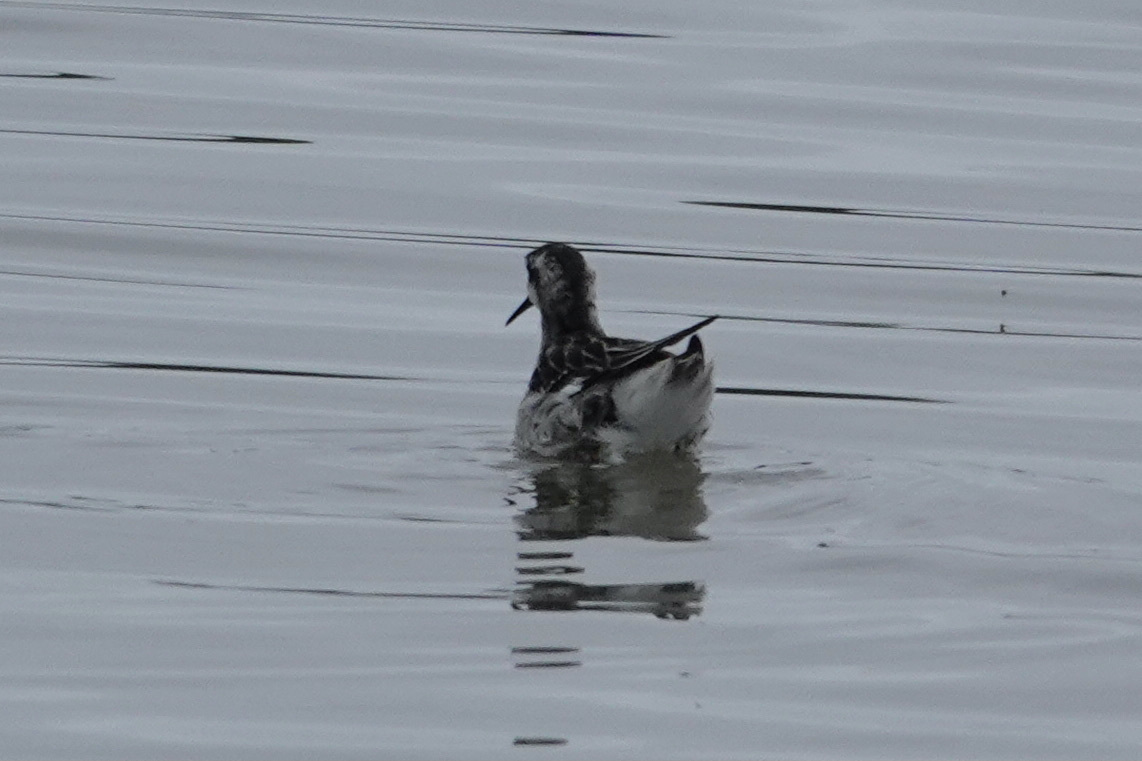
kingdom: Animalia
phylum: Chordata
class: Aves
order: Charadriiformes
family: Scolopacidae
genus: Phalaropus
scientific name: Phalaropus lobatus
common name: Red-necked phalarope
